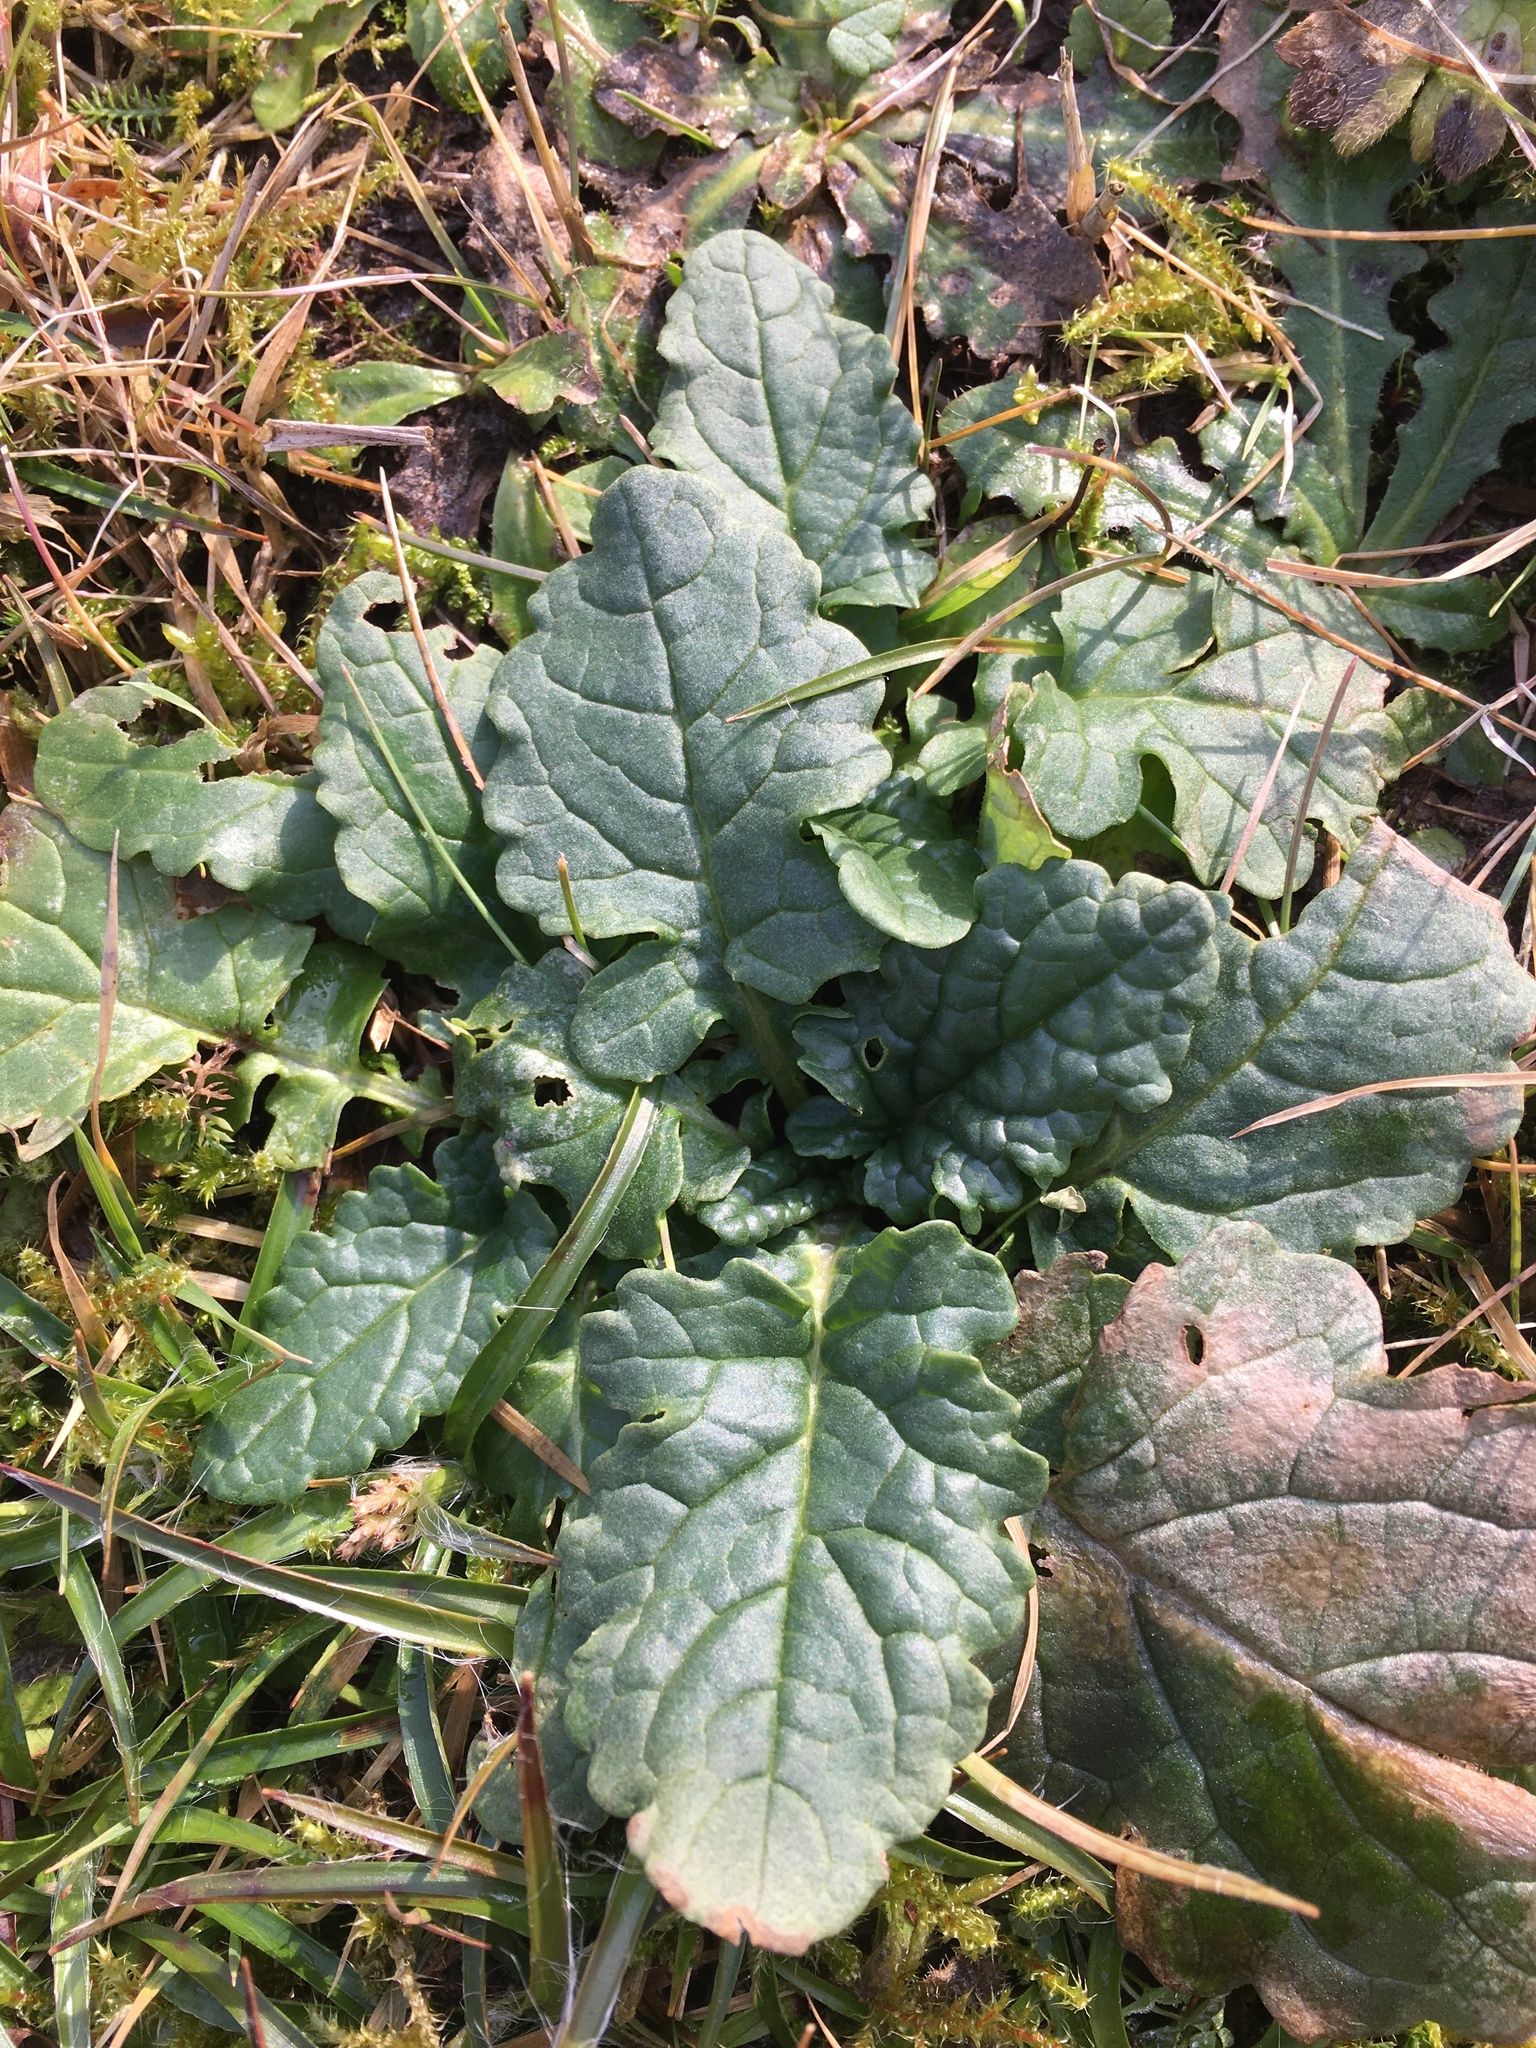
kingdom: Plantae
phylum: Tracheophyta
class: Magnoliopsida
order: Asterales
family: Asteraceae
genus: Jacobaea
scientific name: Jacobaea vulgaris
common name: Stinking willie
